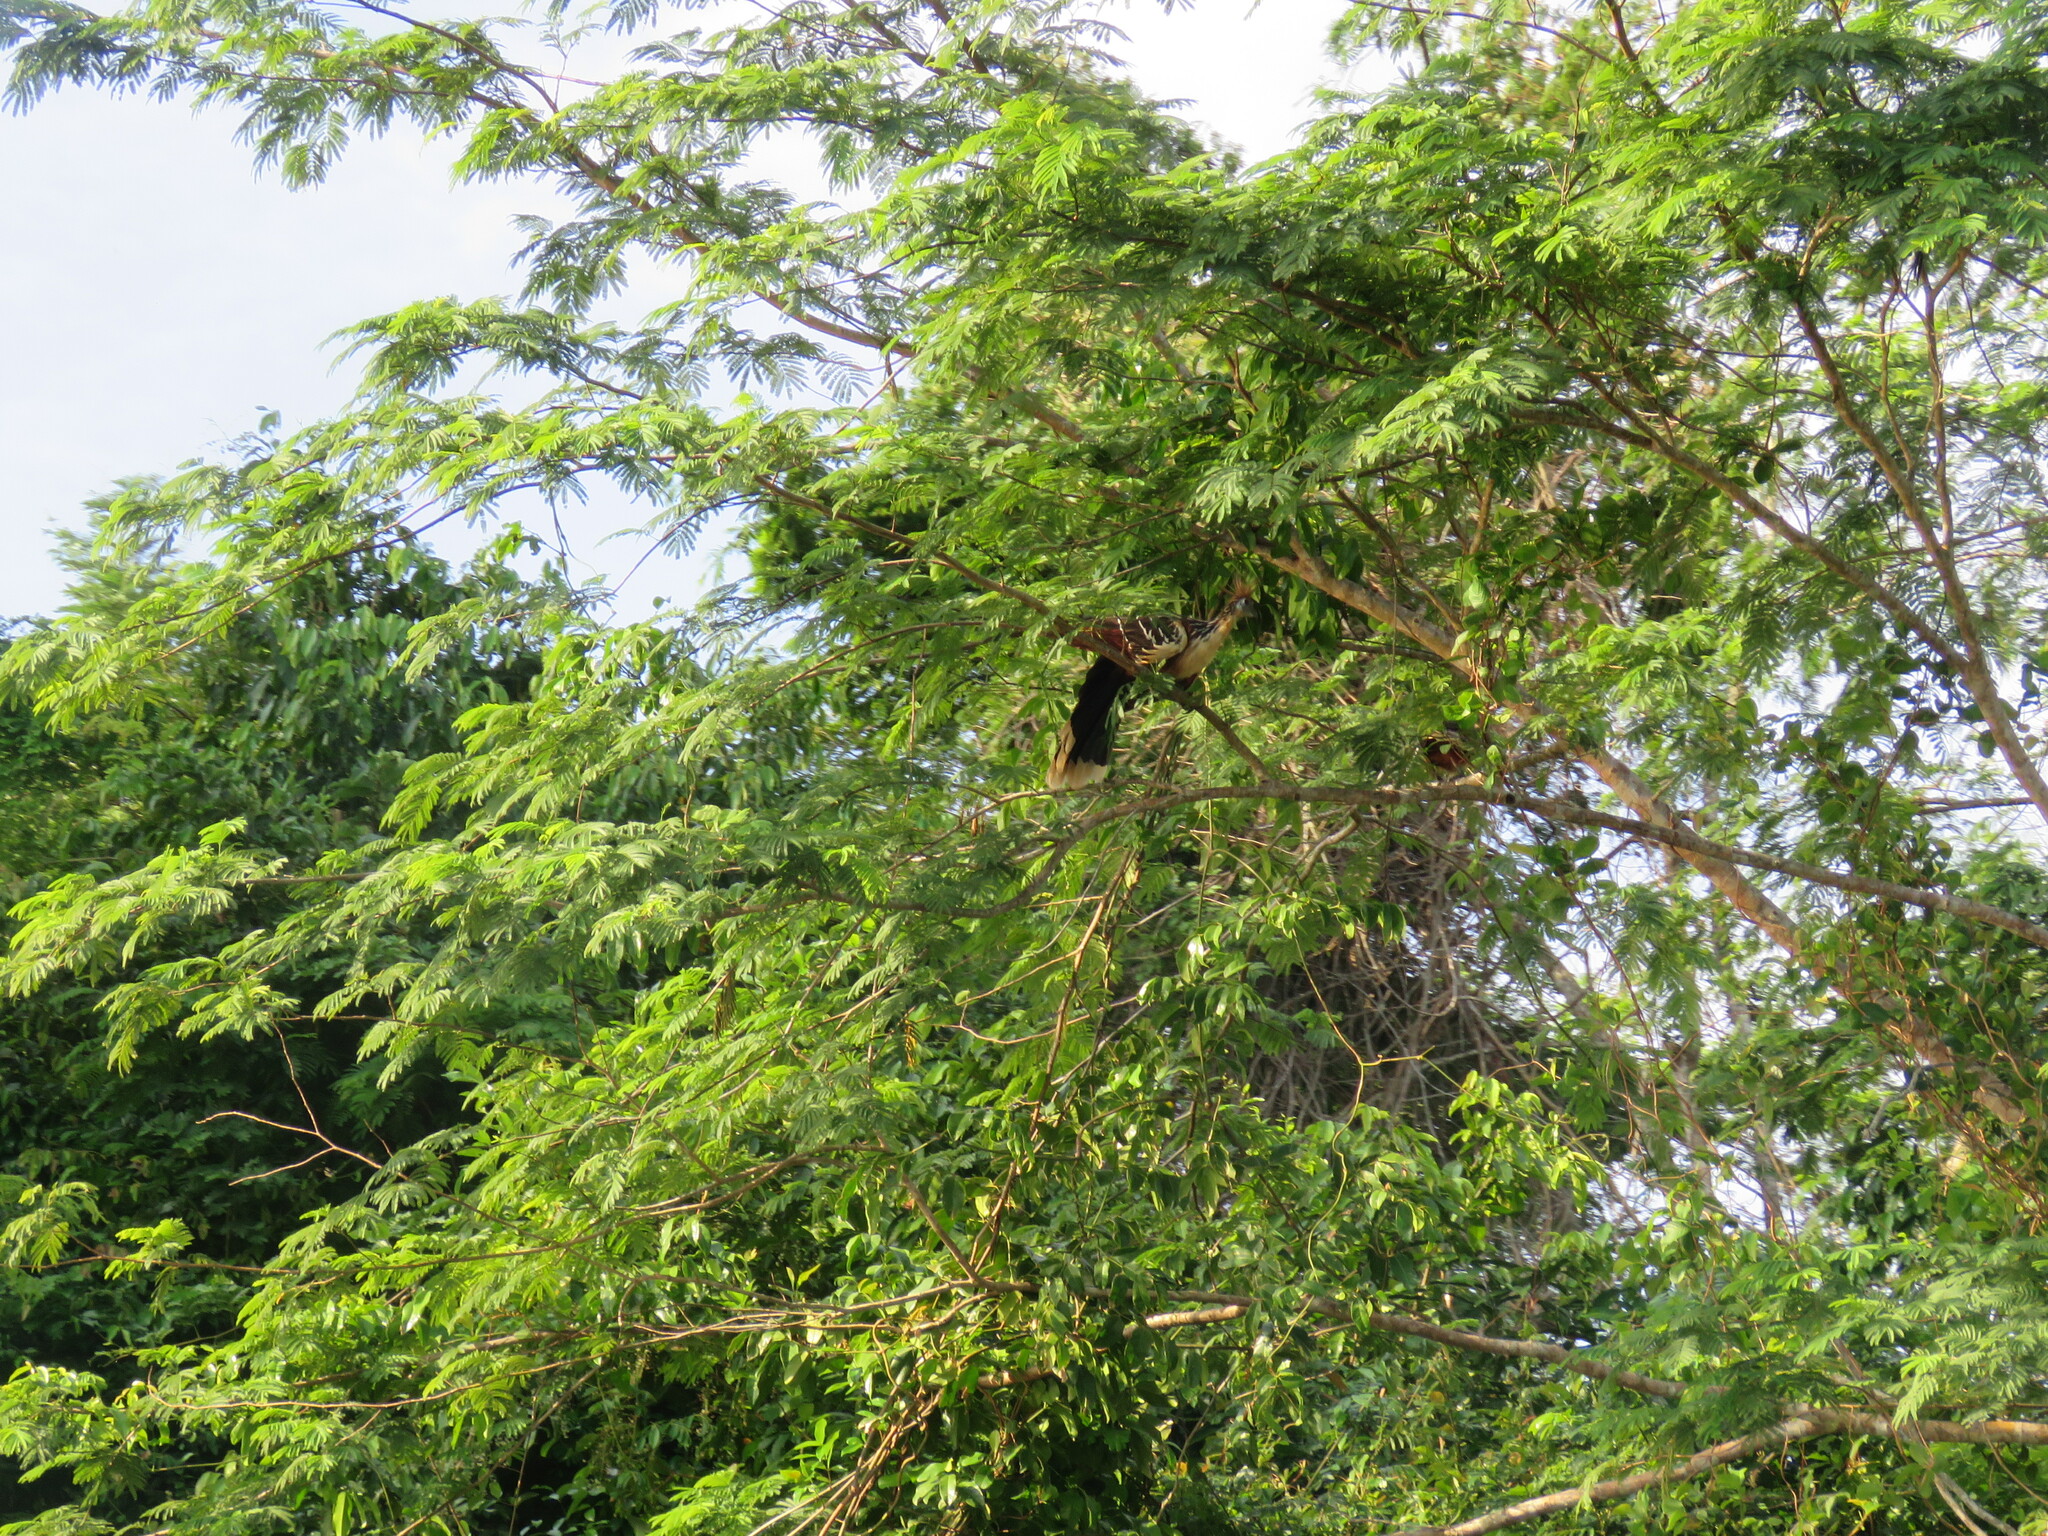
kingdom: Animalia
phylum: Chordata
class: Aves
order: Opisthocomiformes
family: Opisthocomidae
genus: Opisthocomus
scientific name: Opisthocomus hoazin
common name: Hoatzin
